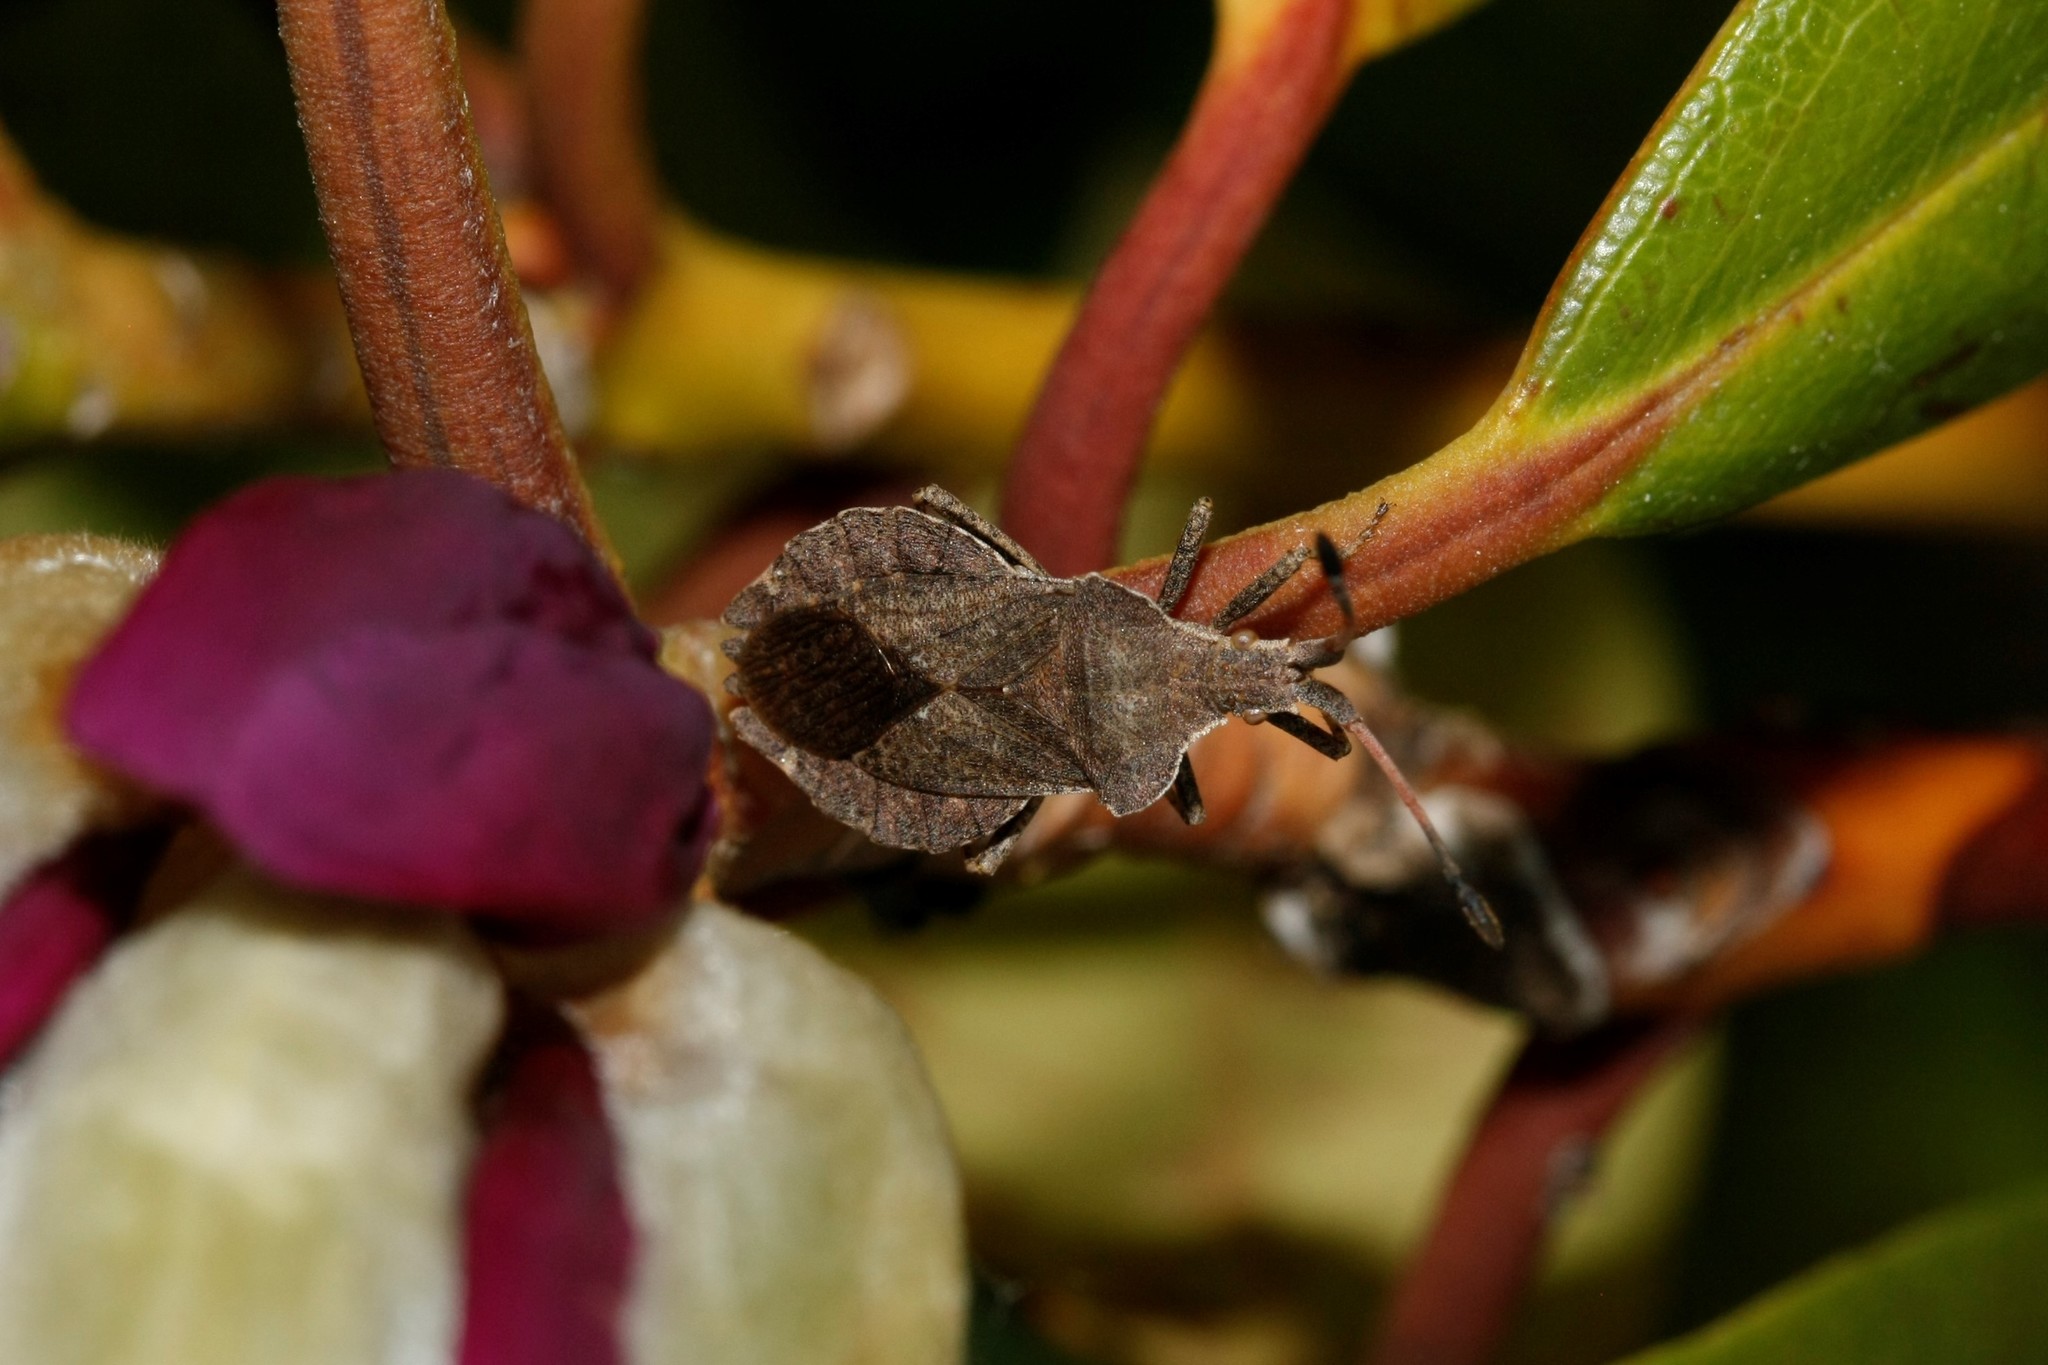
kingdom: Animalia
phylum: Arthropoda
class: Insecta
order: Hemiptera
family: Coreidae
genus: Enoplops
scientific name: Enoplops scapha
